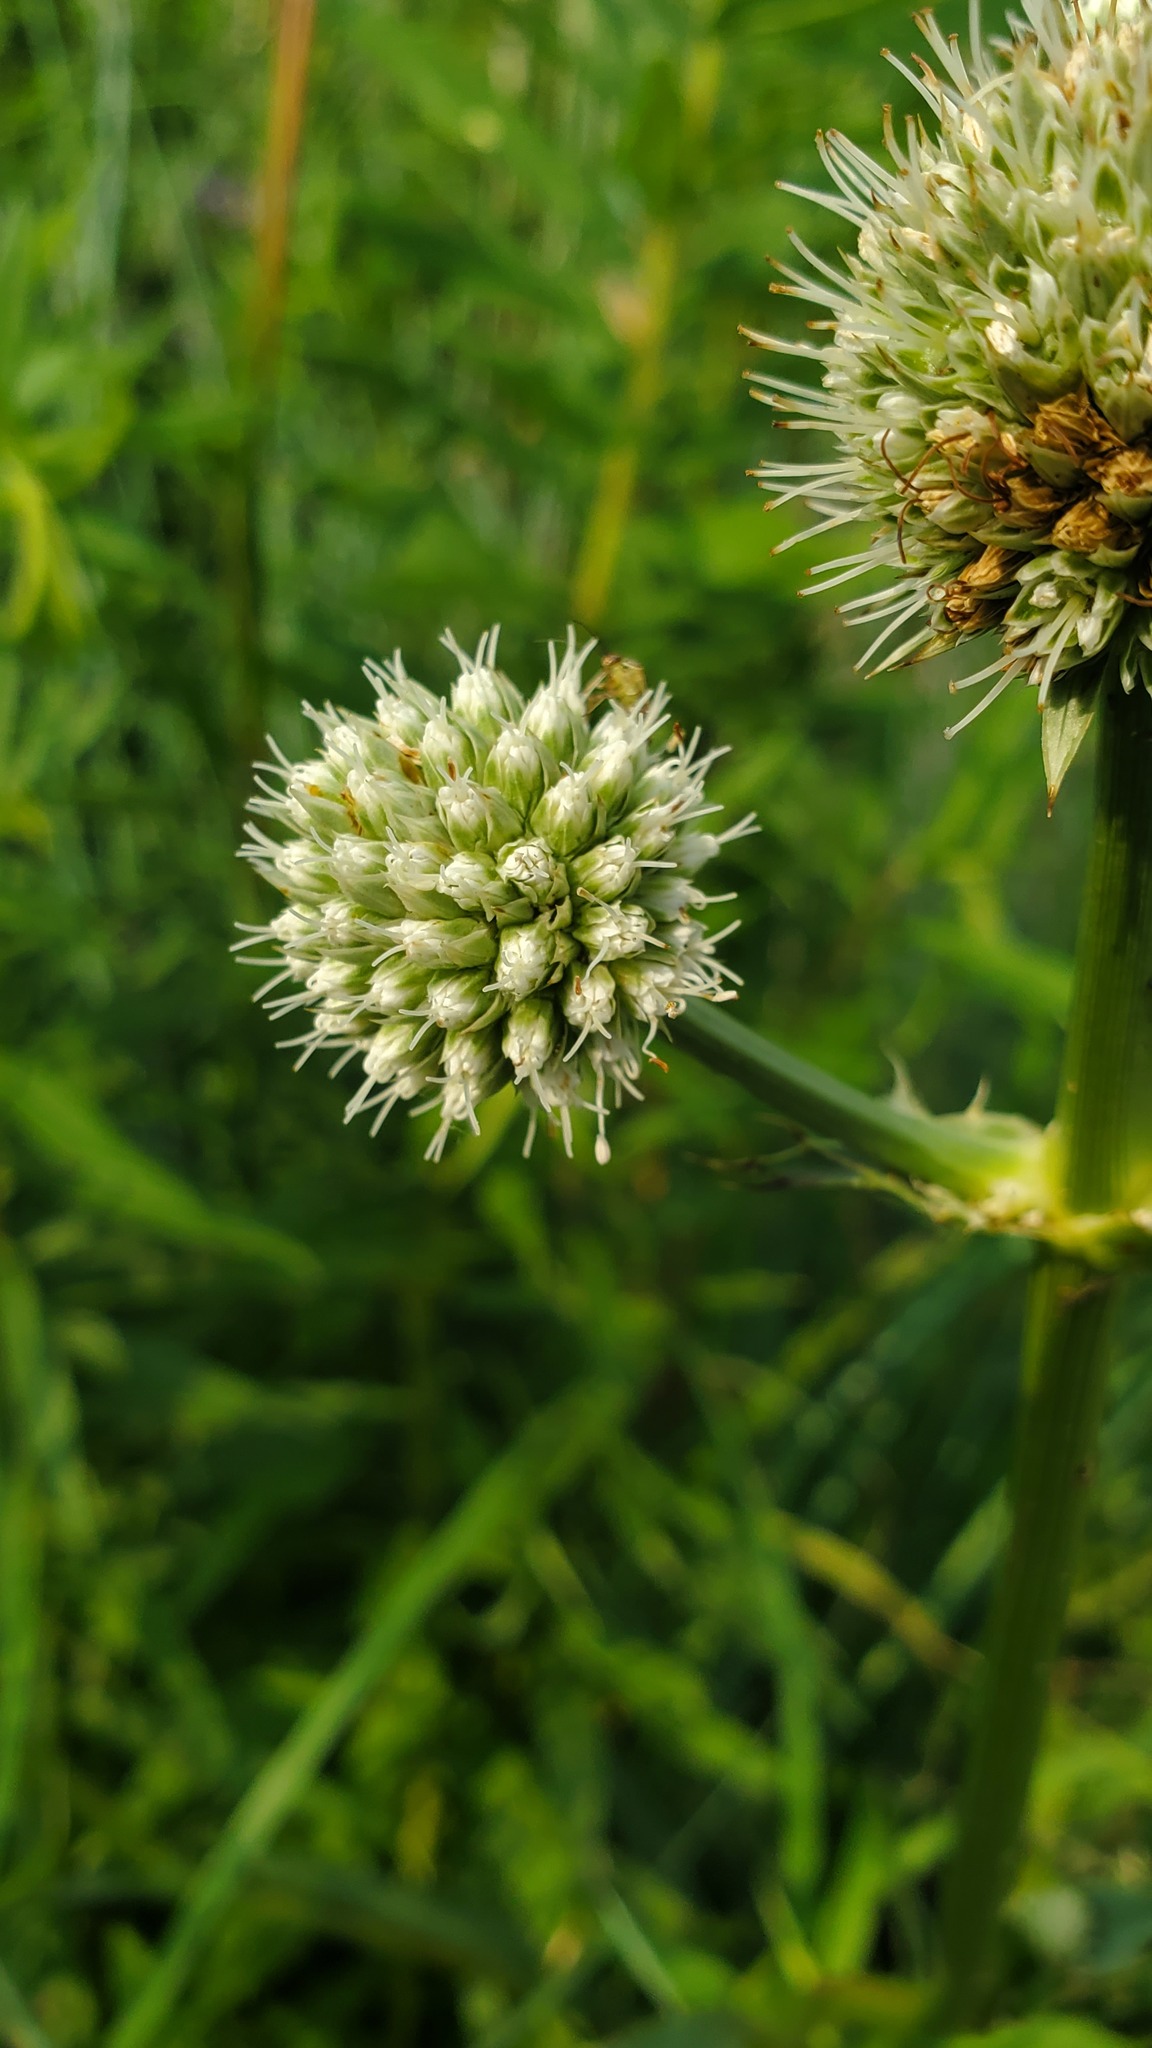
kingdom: Plantae
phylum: Tracheophyta
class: Magnoliopsida
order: Apiales
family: Apiaceae
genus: Eryngium
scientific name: Eryngium yuccifolium
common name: Button eryngo
